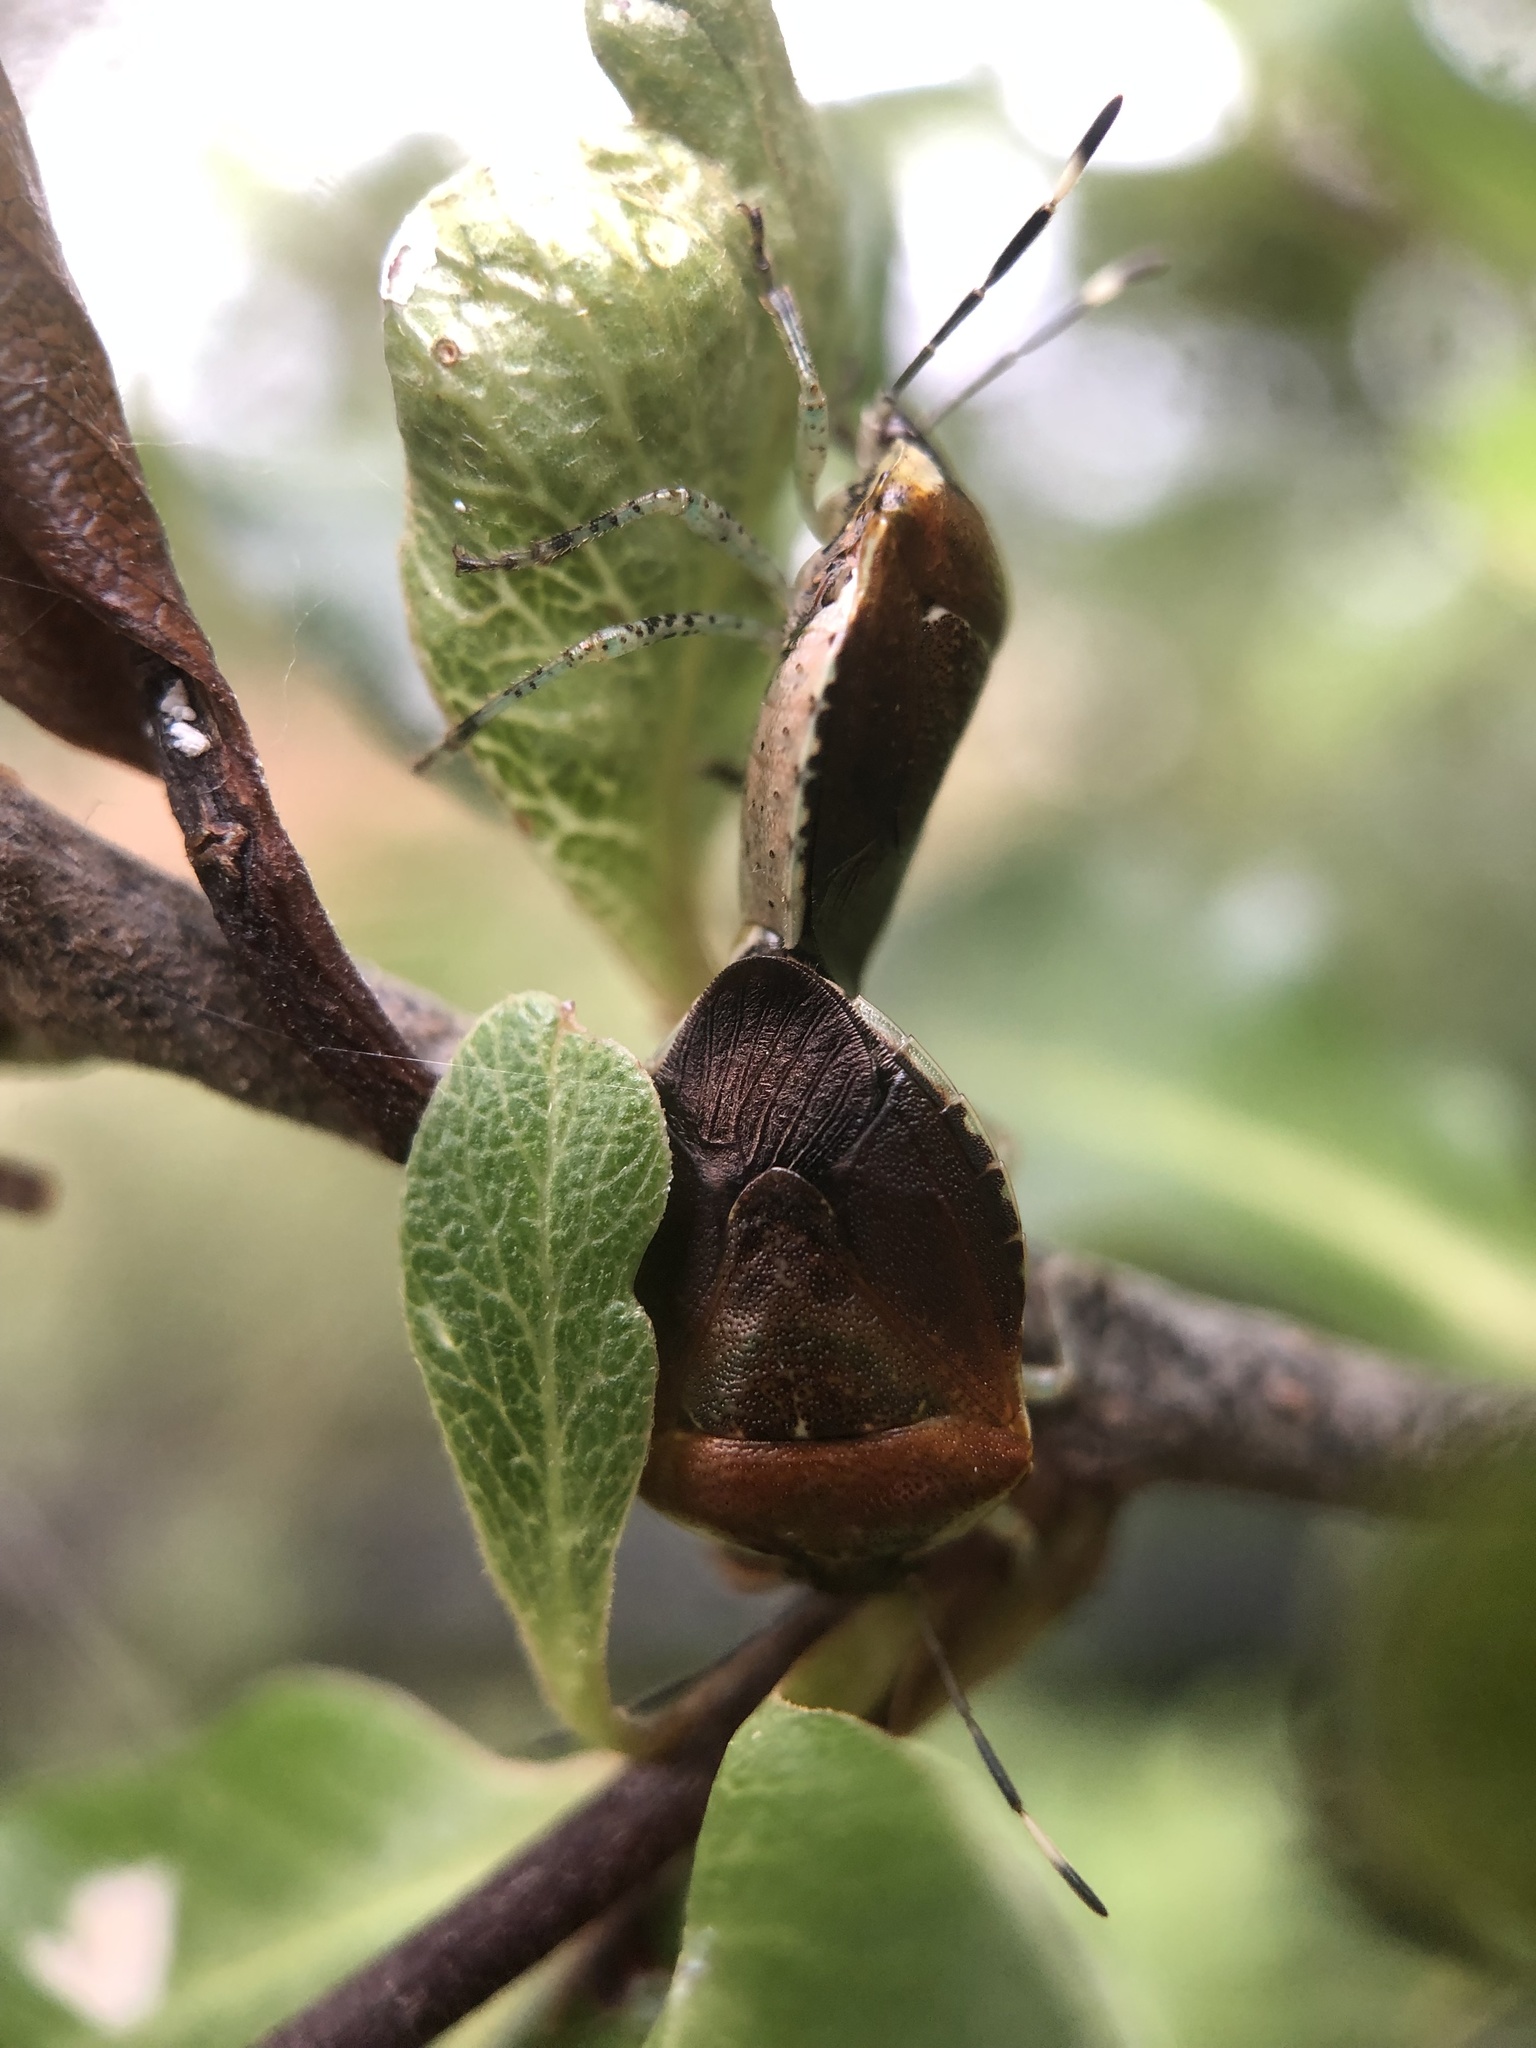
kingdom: Animalia
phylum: Arthropoda
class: Insecta
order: Hemiptera
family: Pentatomidae
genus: Monteithiella
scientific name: Monteithiella
